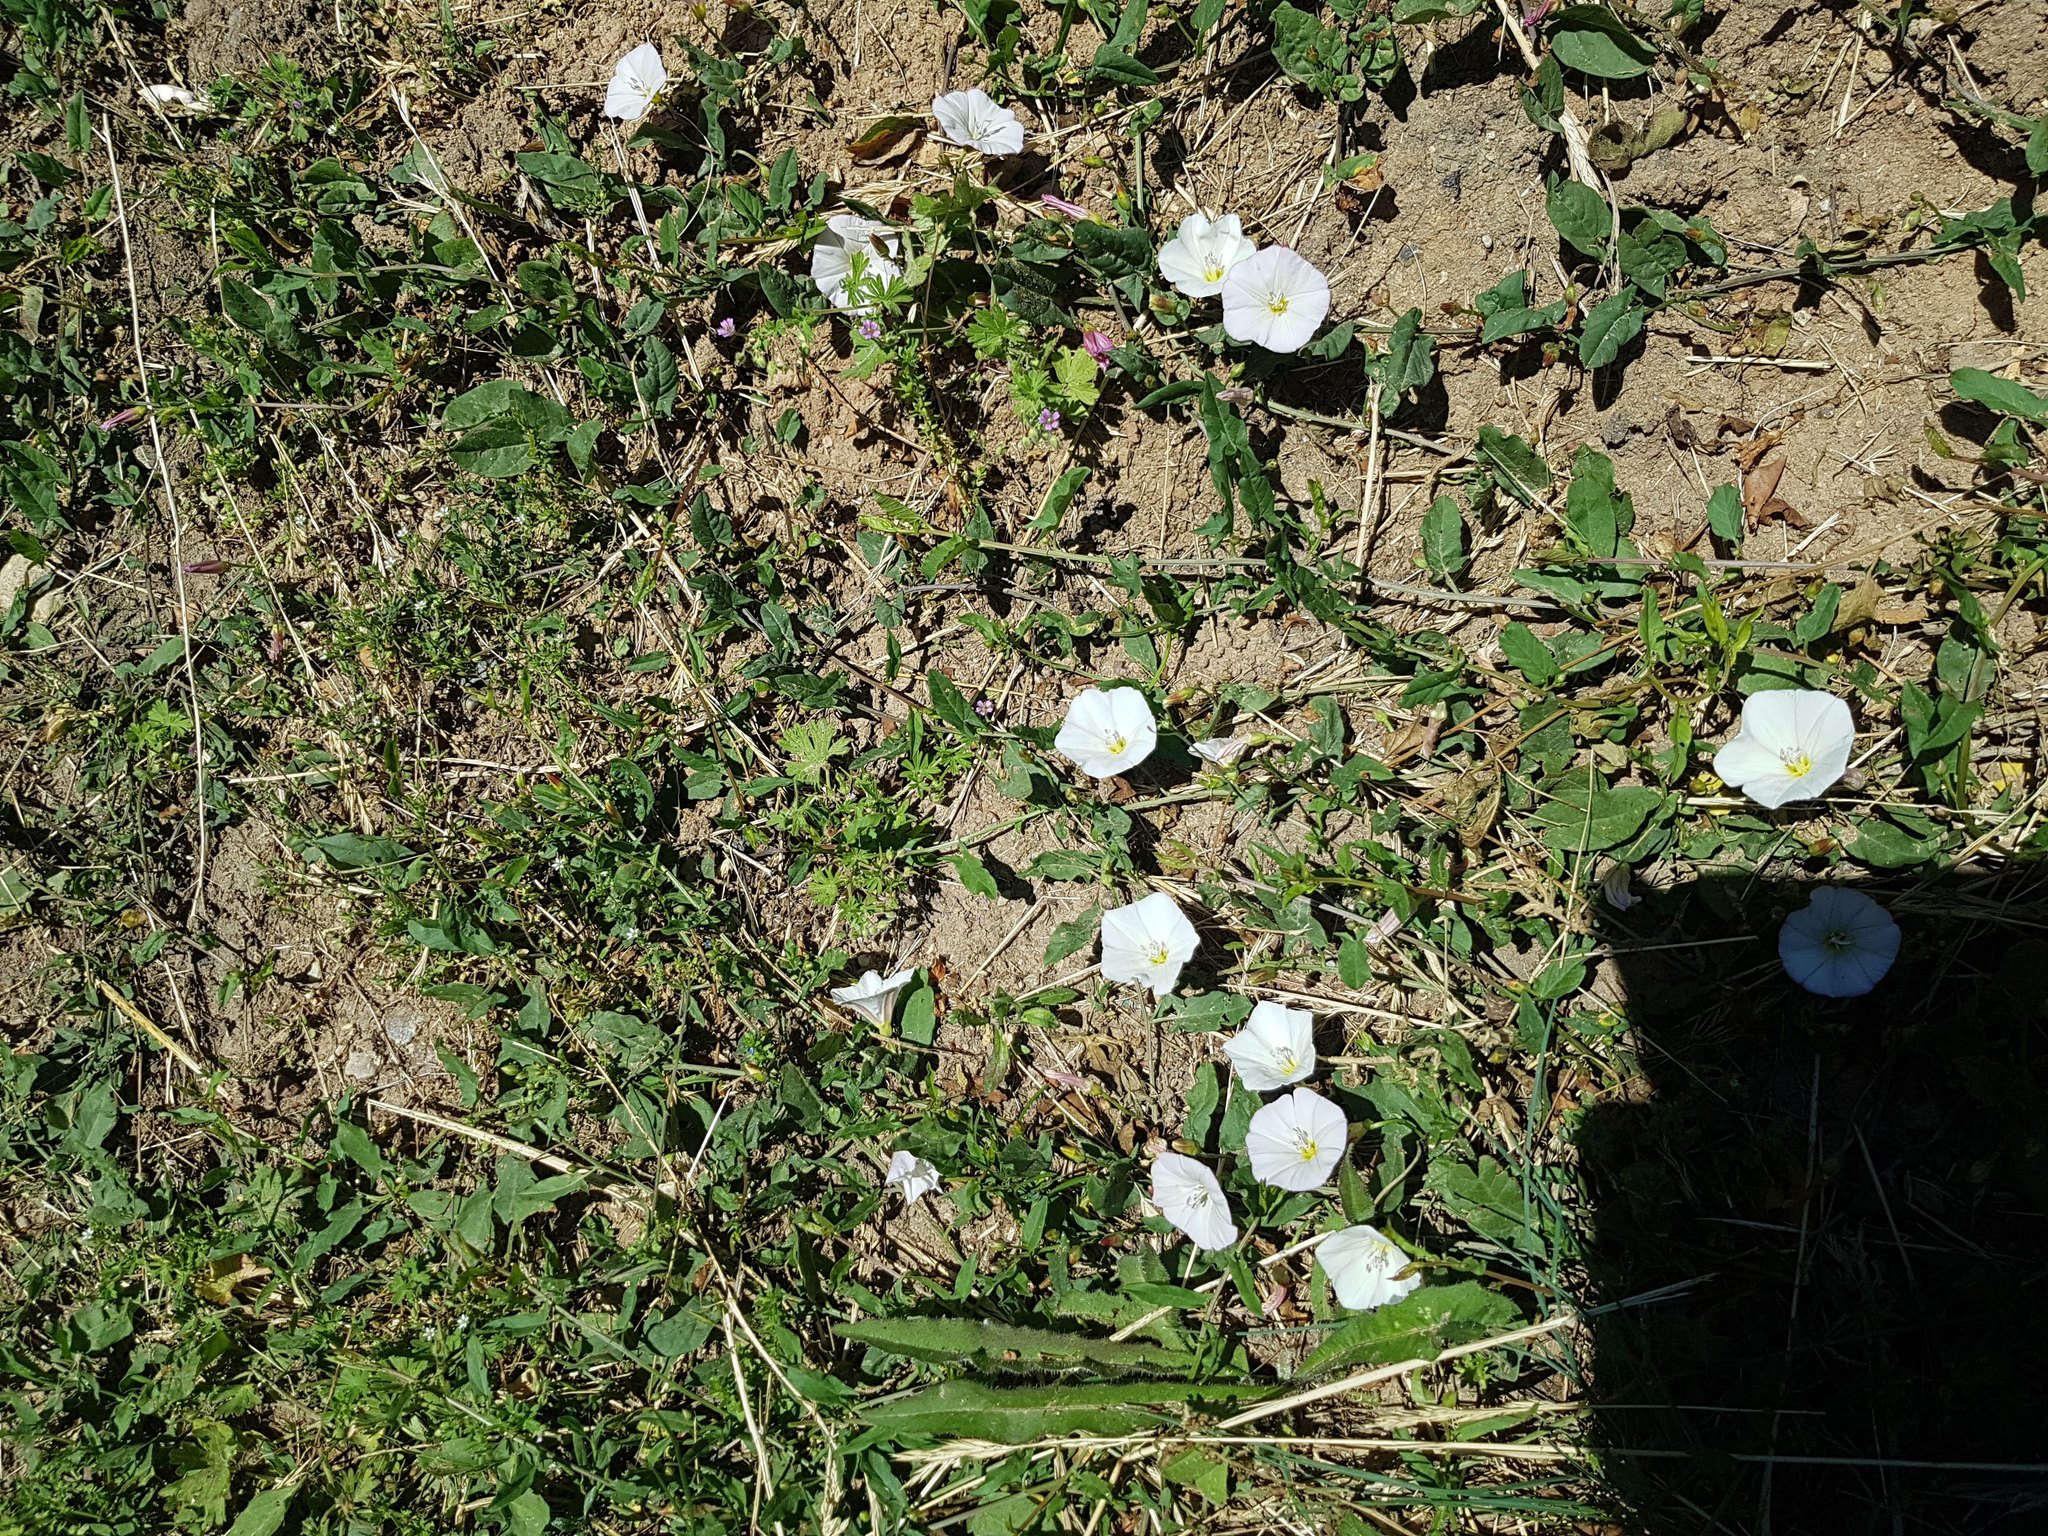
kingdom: Plantae
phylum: Tracheophyta
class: Magnoliopsida
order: Solanales
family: Convolvulaceae
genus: Convolvulus
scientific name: Convolvulus arvensis
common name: Field bindweed
